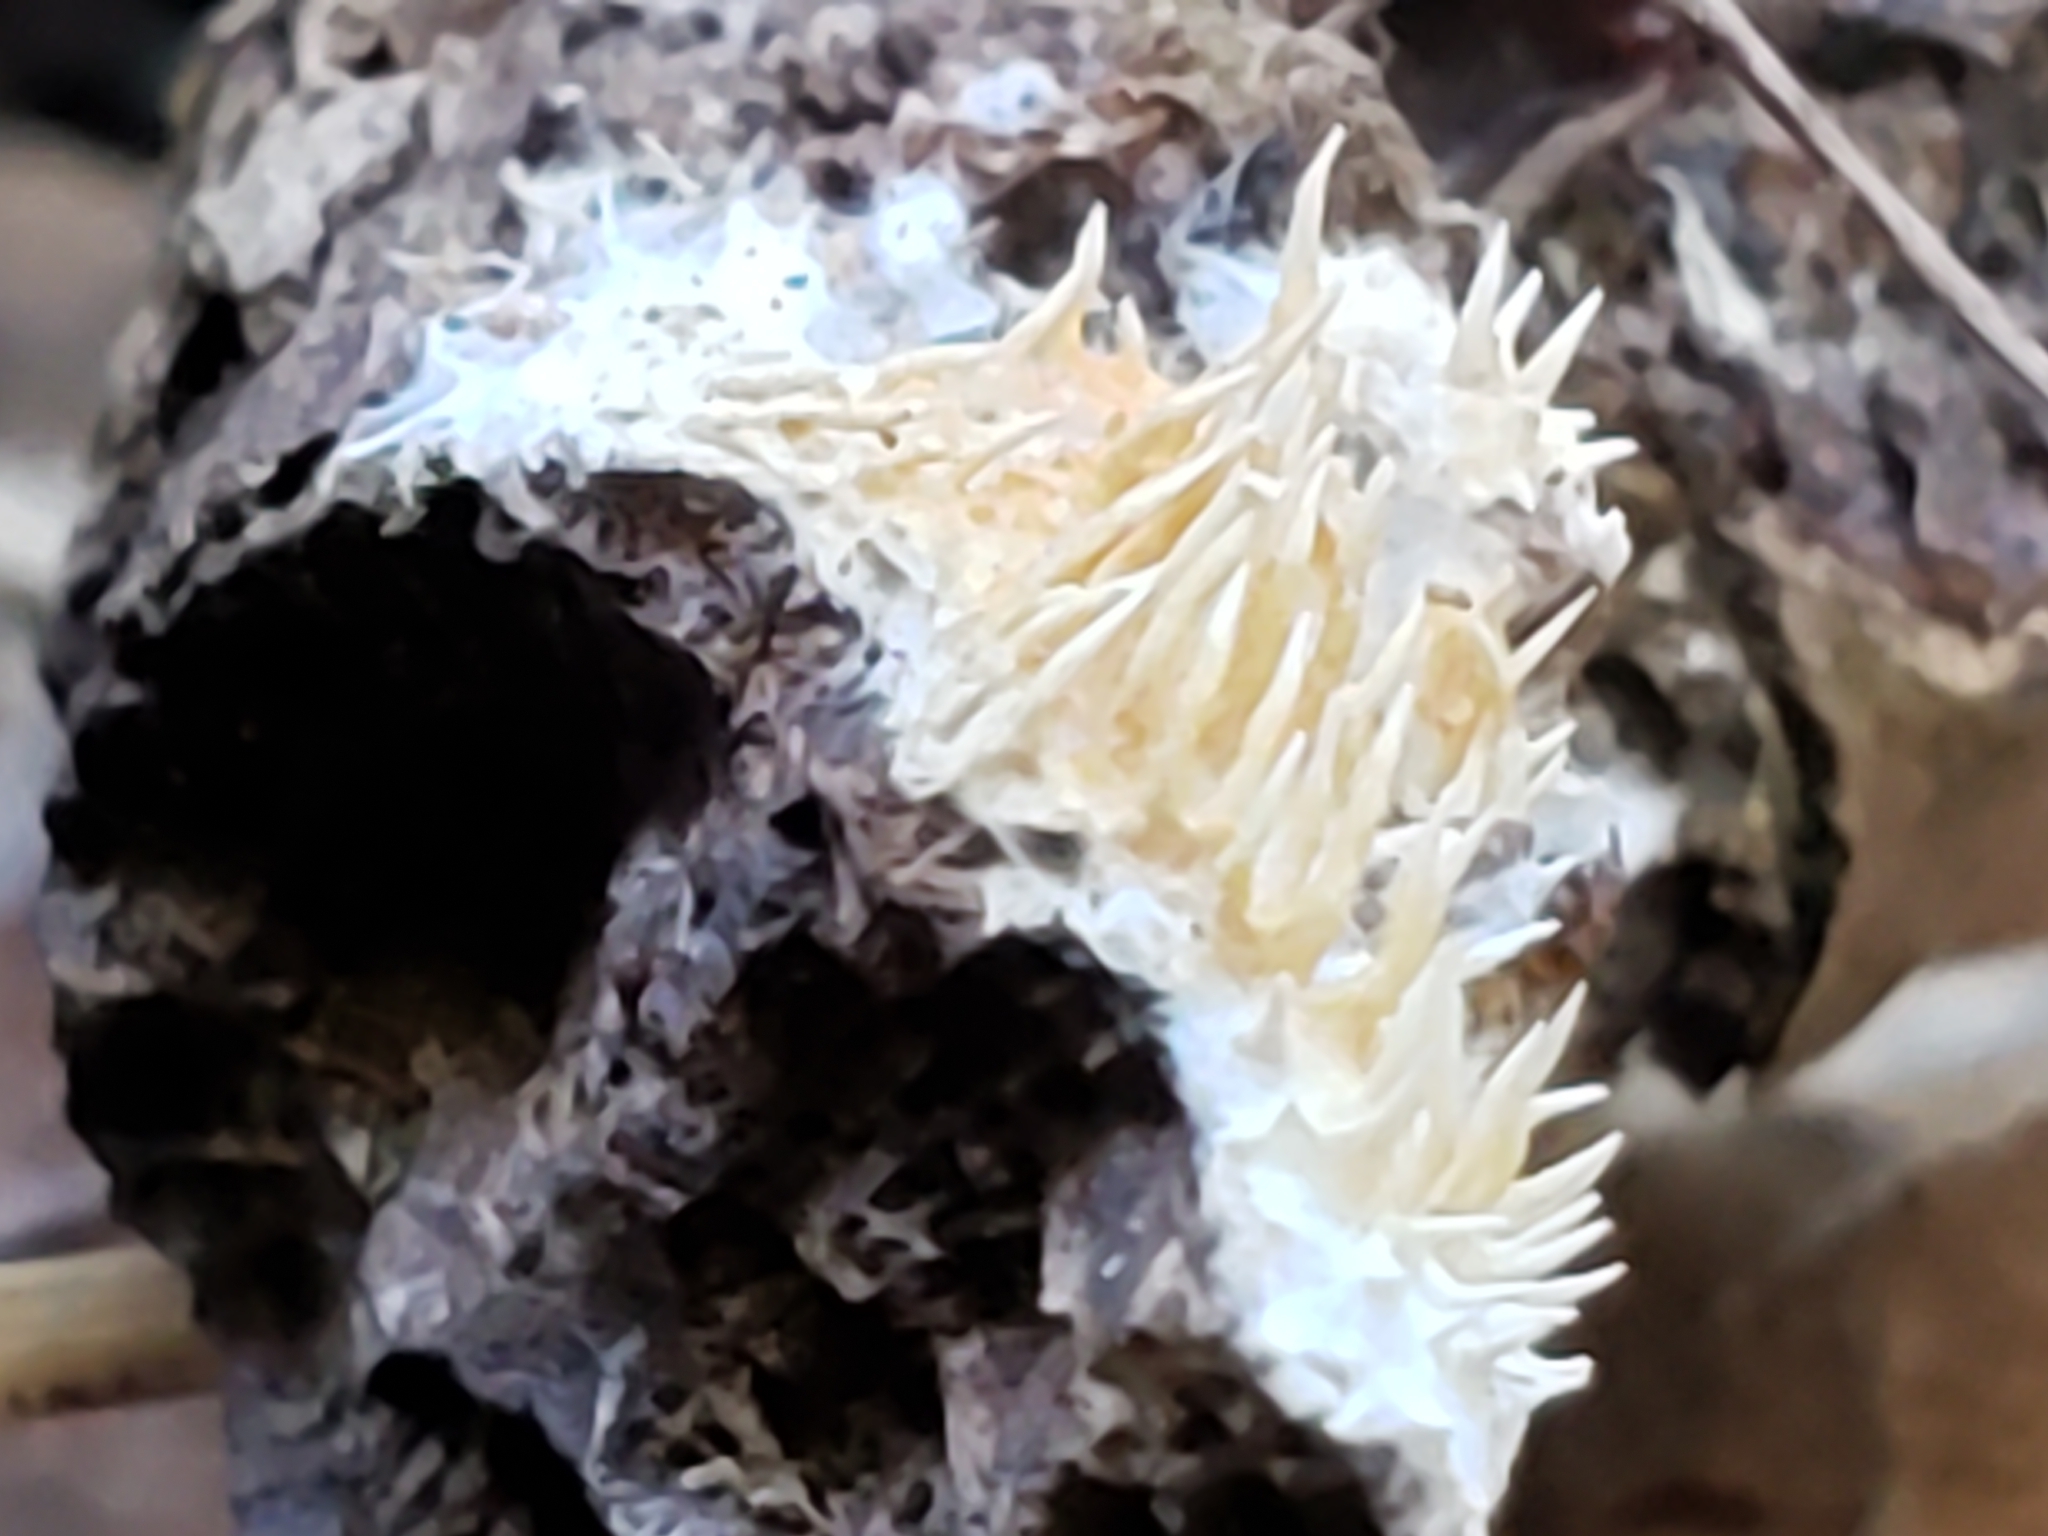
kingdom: Fungi
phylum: Basidiomycota
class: Agaricomycetes
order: Agaricales
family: Radulomycetaceae
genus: Radulomyces
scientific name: Radulomyces copelandii
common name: Asian beauty
